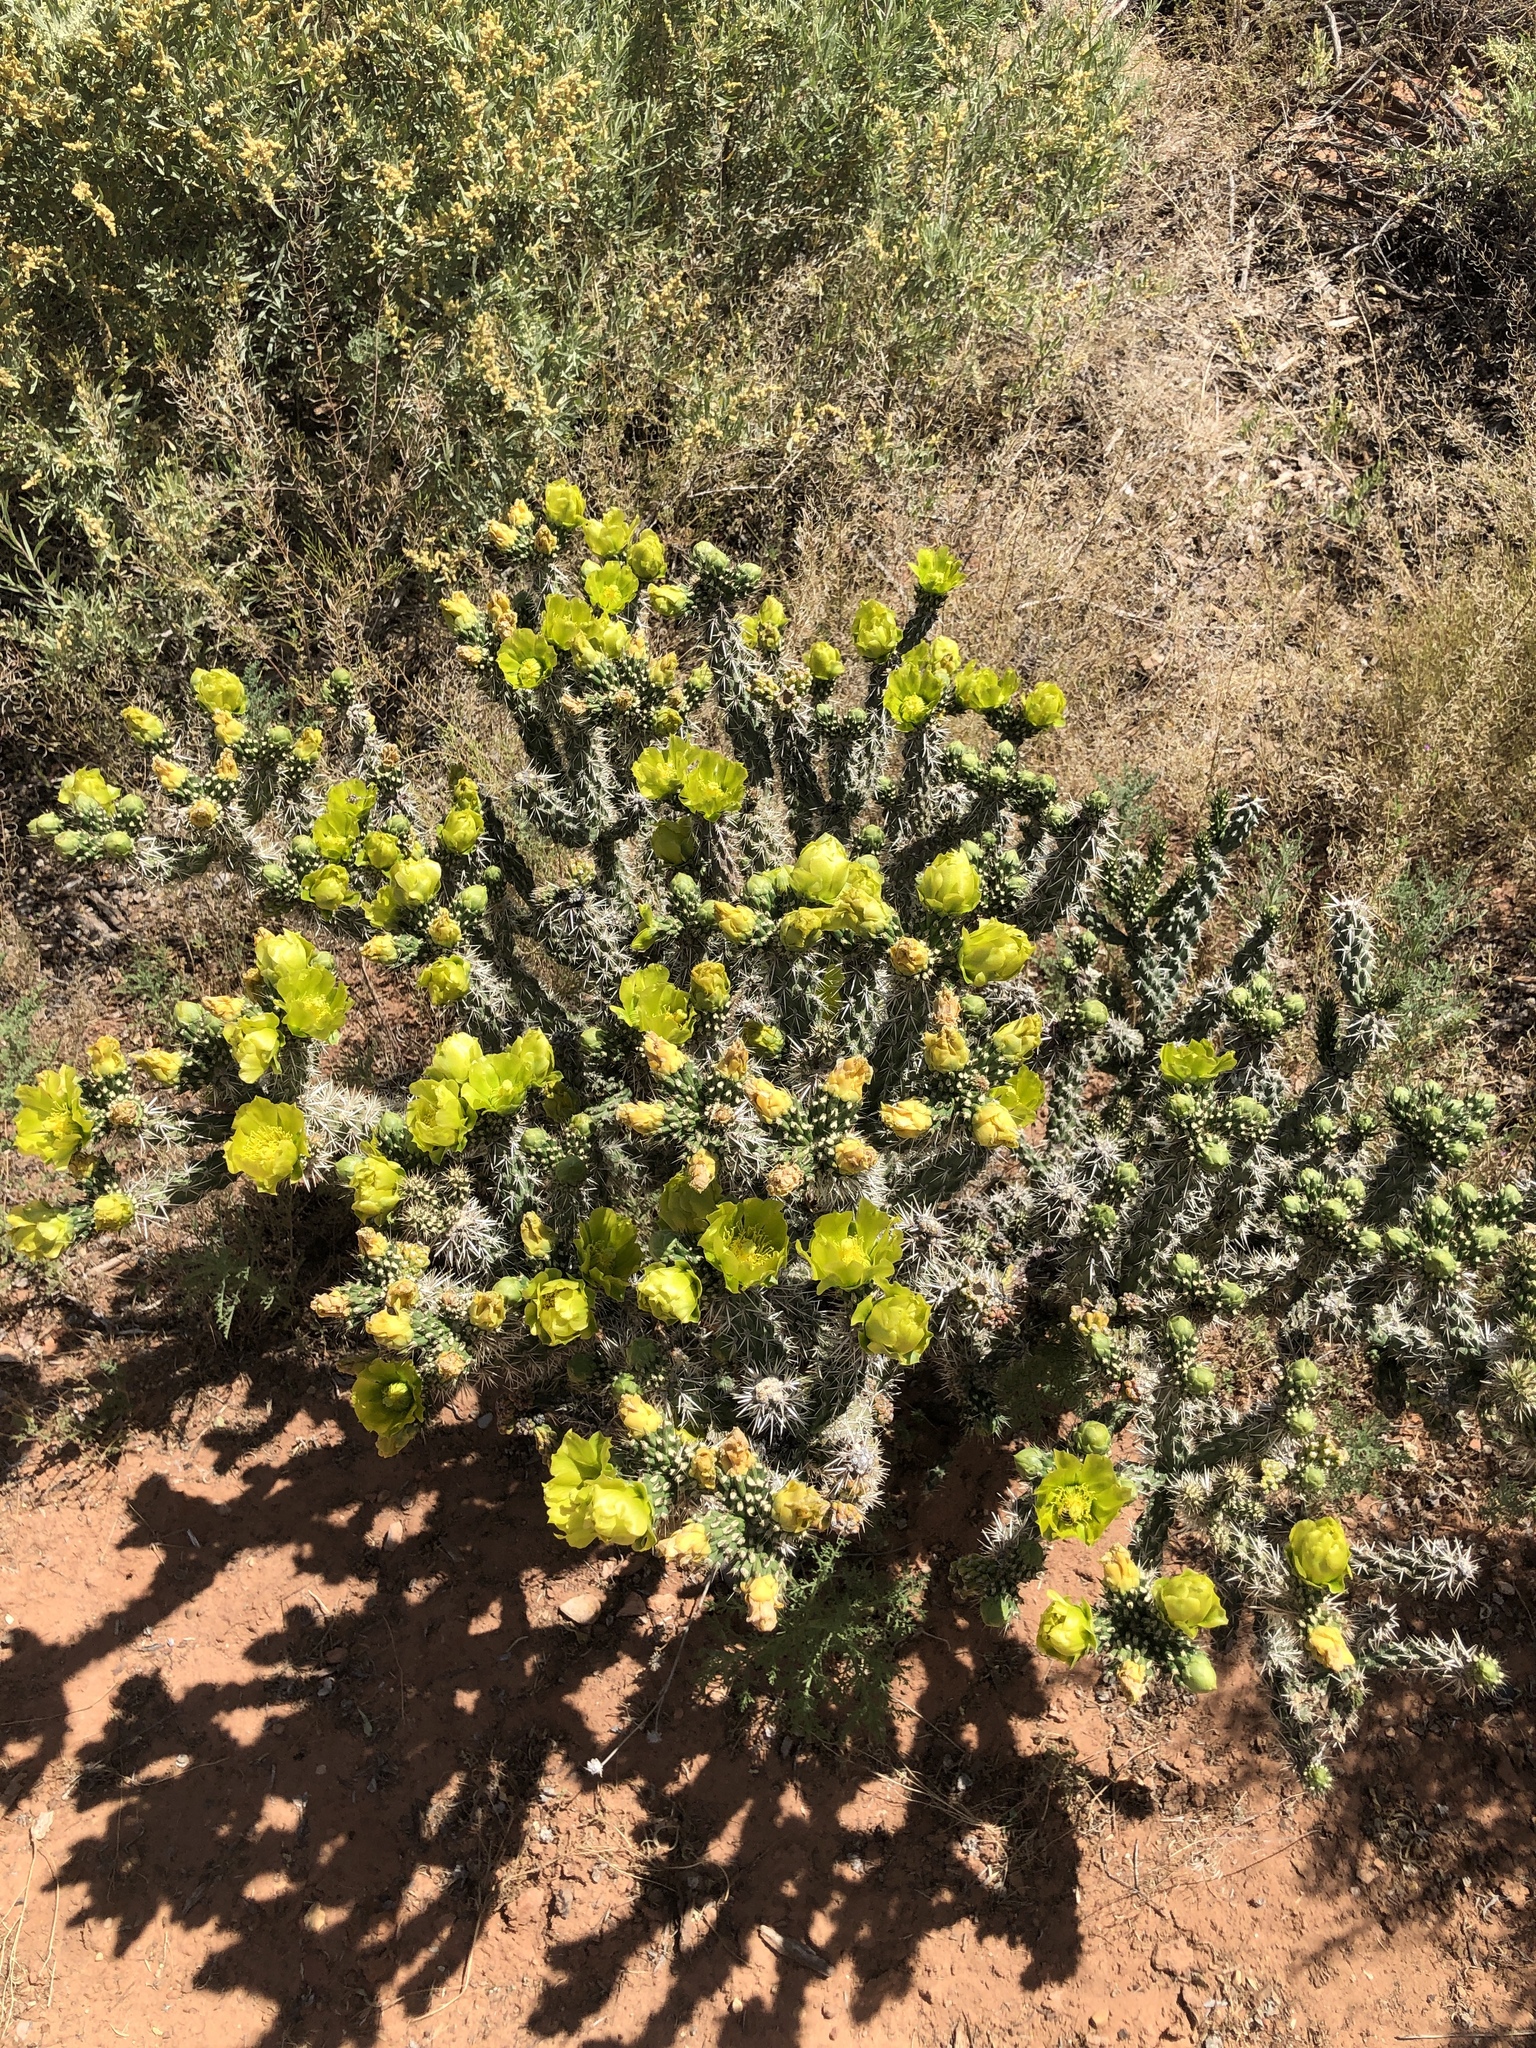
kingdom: Plantae
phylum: Tracheophyta
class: Magnoliopsida
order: Caryophyllales
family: Cactaceae
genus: Cylindropuntia
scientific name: Cylindropuntia whipplei
